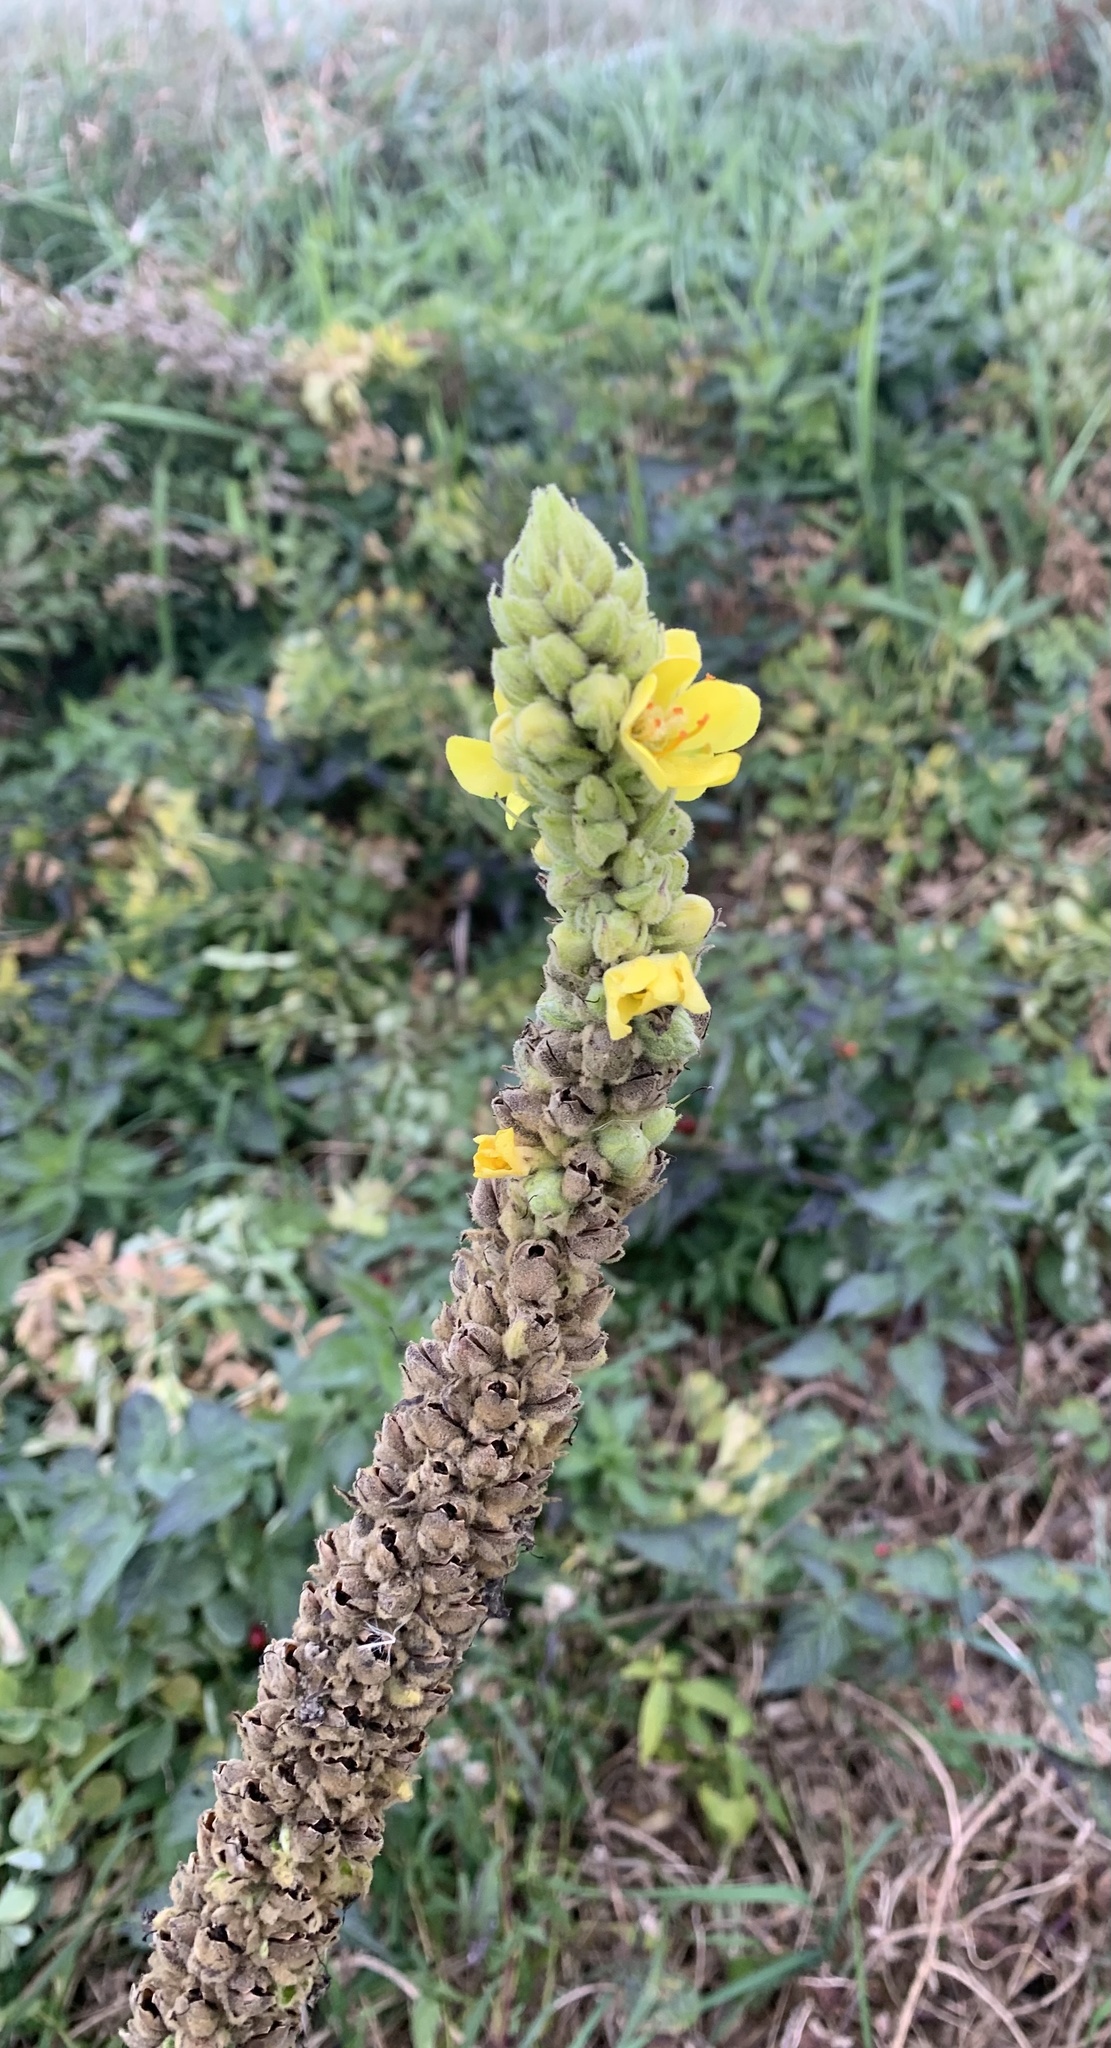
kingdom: Plantae
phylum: Tracheophyta
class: Magnoliopsida
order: Lamiales
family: Scrophulariaceae
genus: Verbascum
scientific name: Verbascum thapsus
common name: Common mullein
